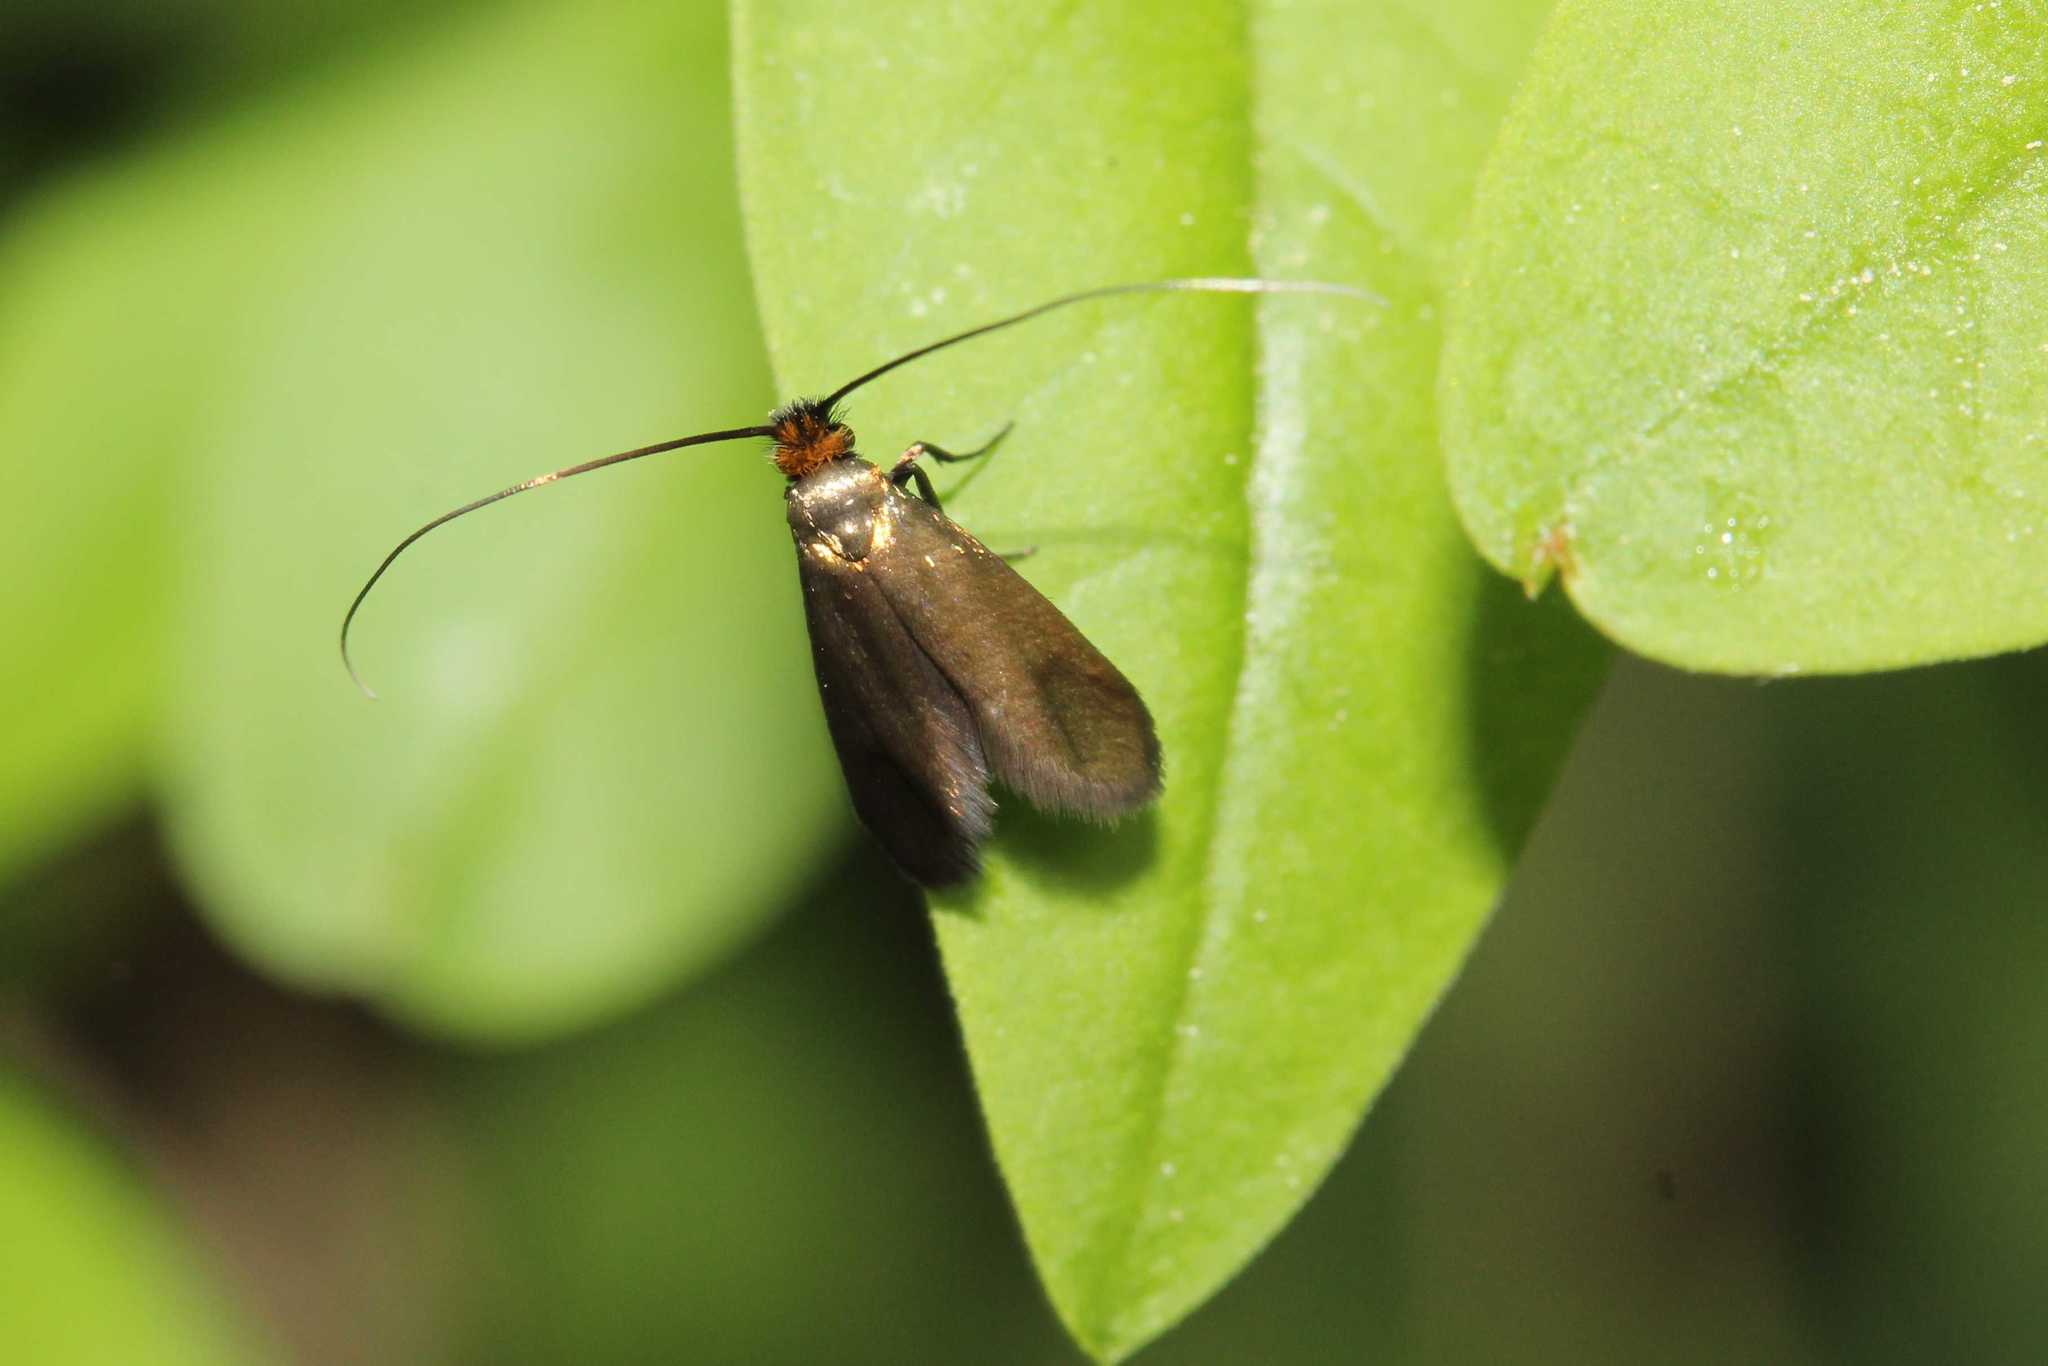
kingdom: Animalia
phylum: Arthropoda
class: Insecta
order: Lepidoptera
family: Adelidae
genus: Cauchas
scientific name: Cauchas rufimitrella
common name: Meadow long-horn
